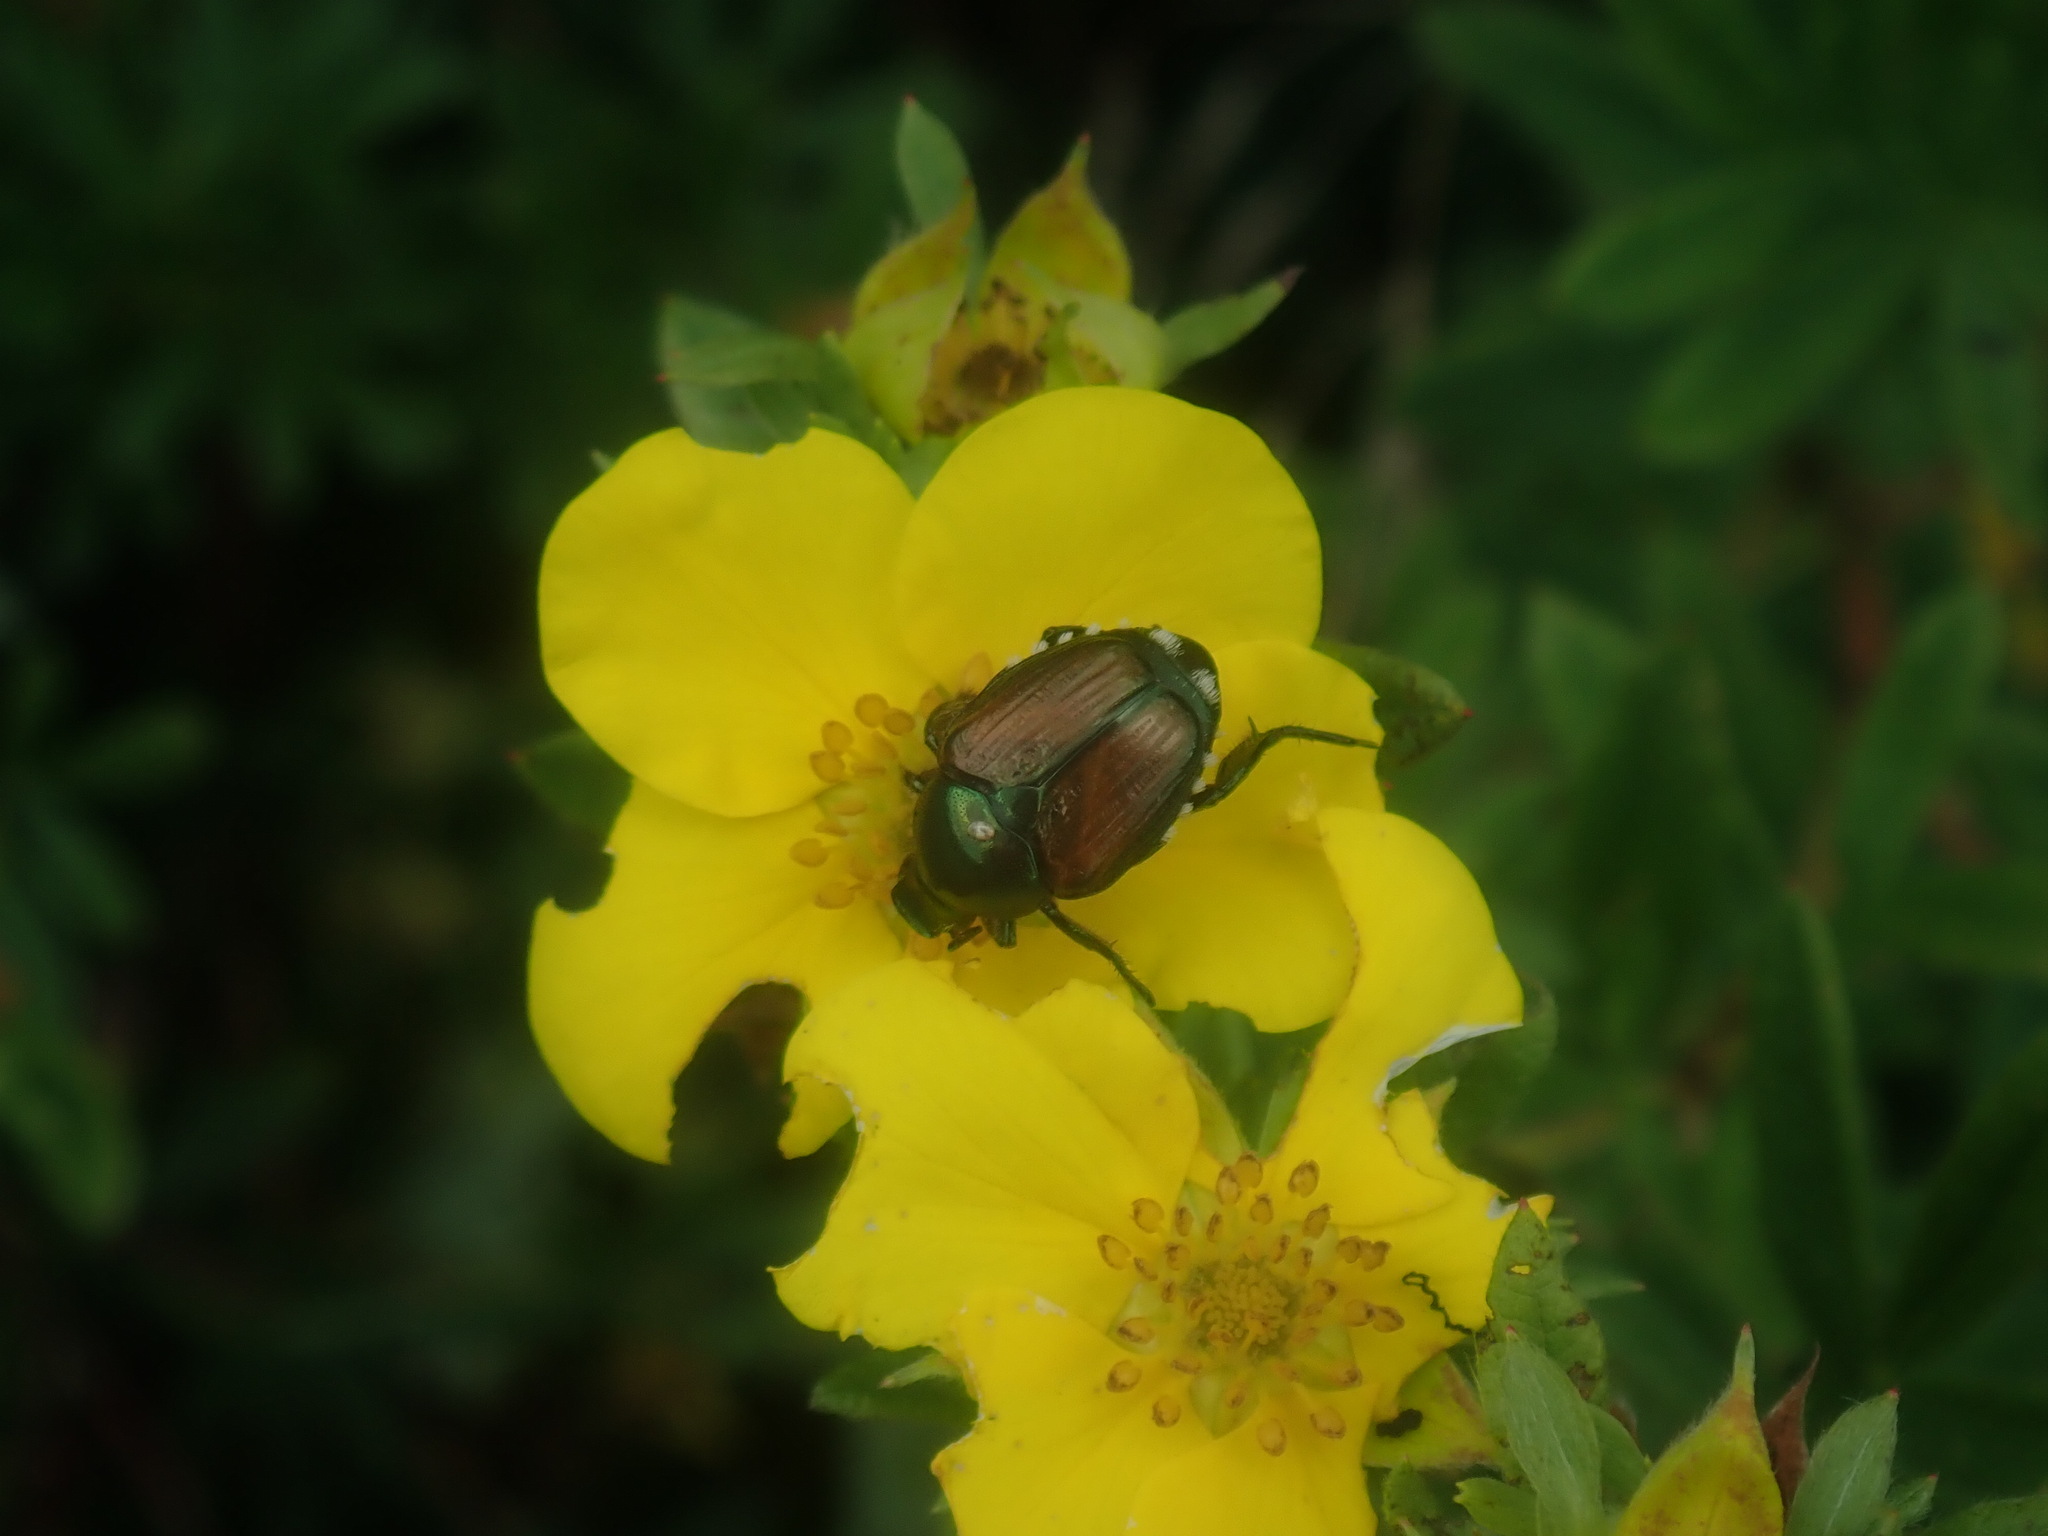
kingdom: Animalia
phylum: Arthropoda
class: Insecta
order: Coleoptera
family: Scarabaeidae
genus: Popillia
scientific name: Popillia japonica
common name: Japanese beetle
